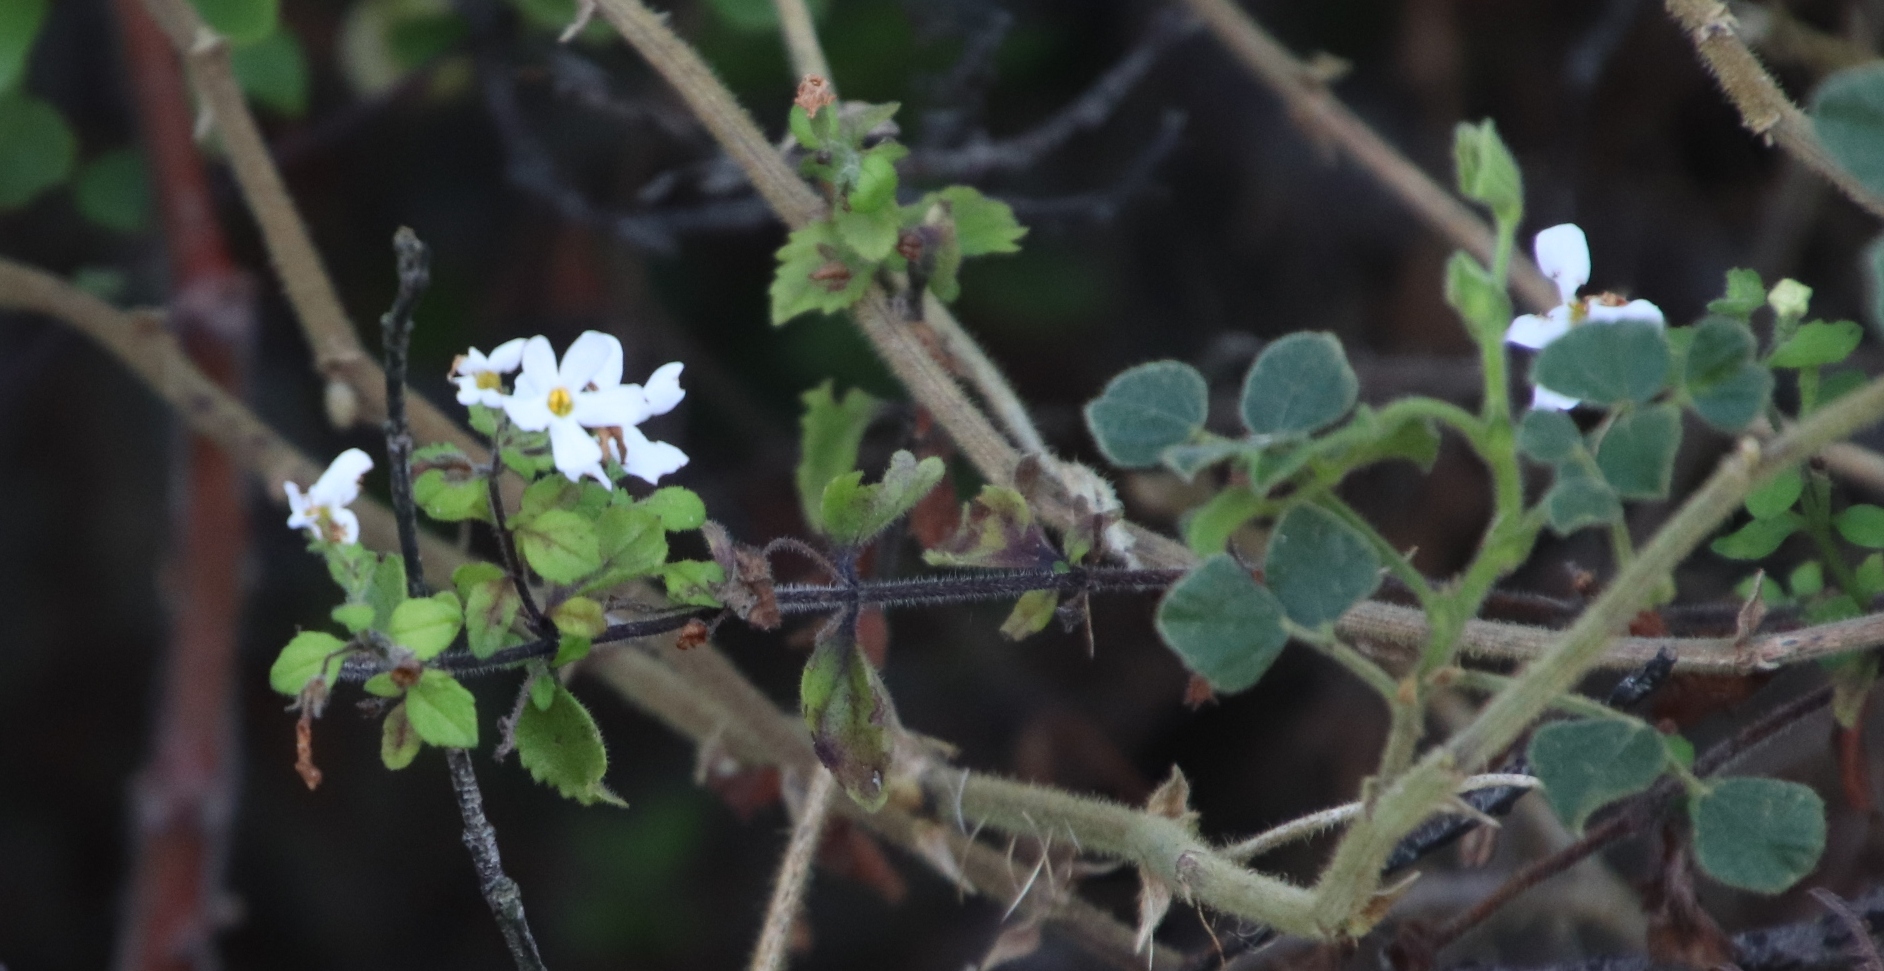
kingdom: Plantae
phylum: Tracheophyta
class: Magnoliopsida
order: Lamiales
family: Scrophulariaceae
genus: Chaenostoma
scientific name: Chaenostoma hispidum
